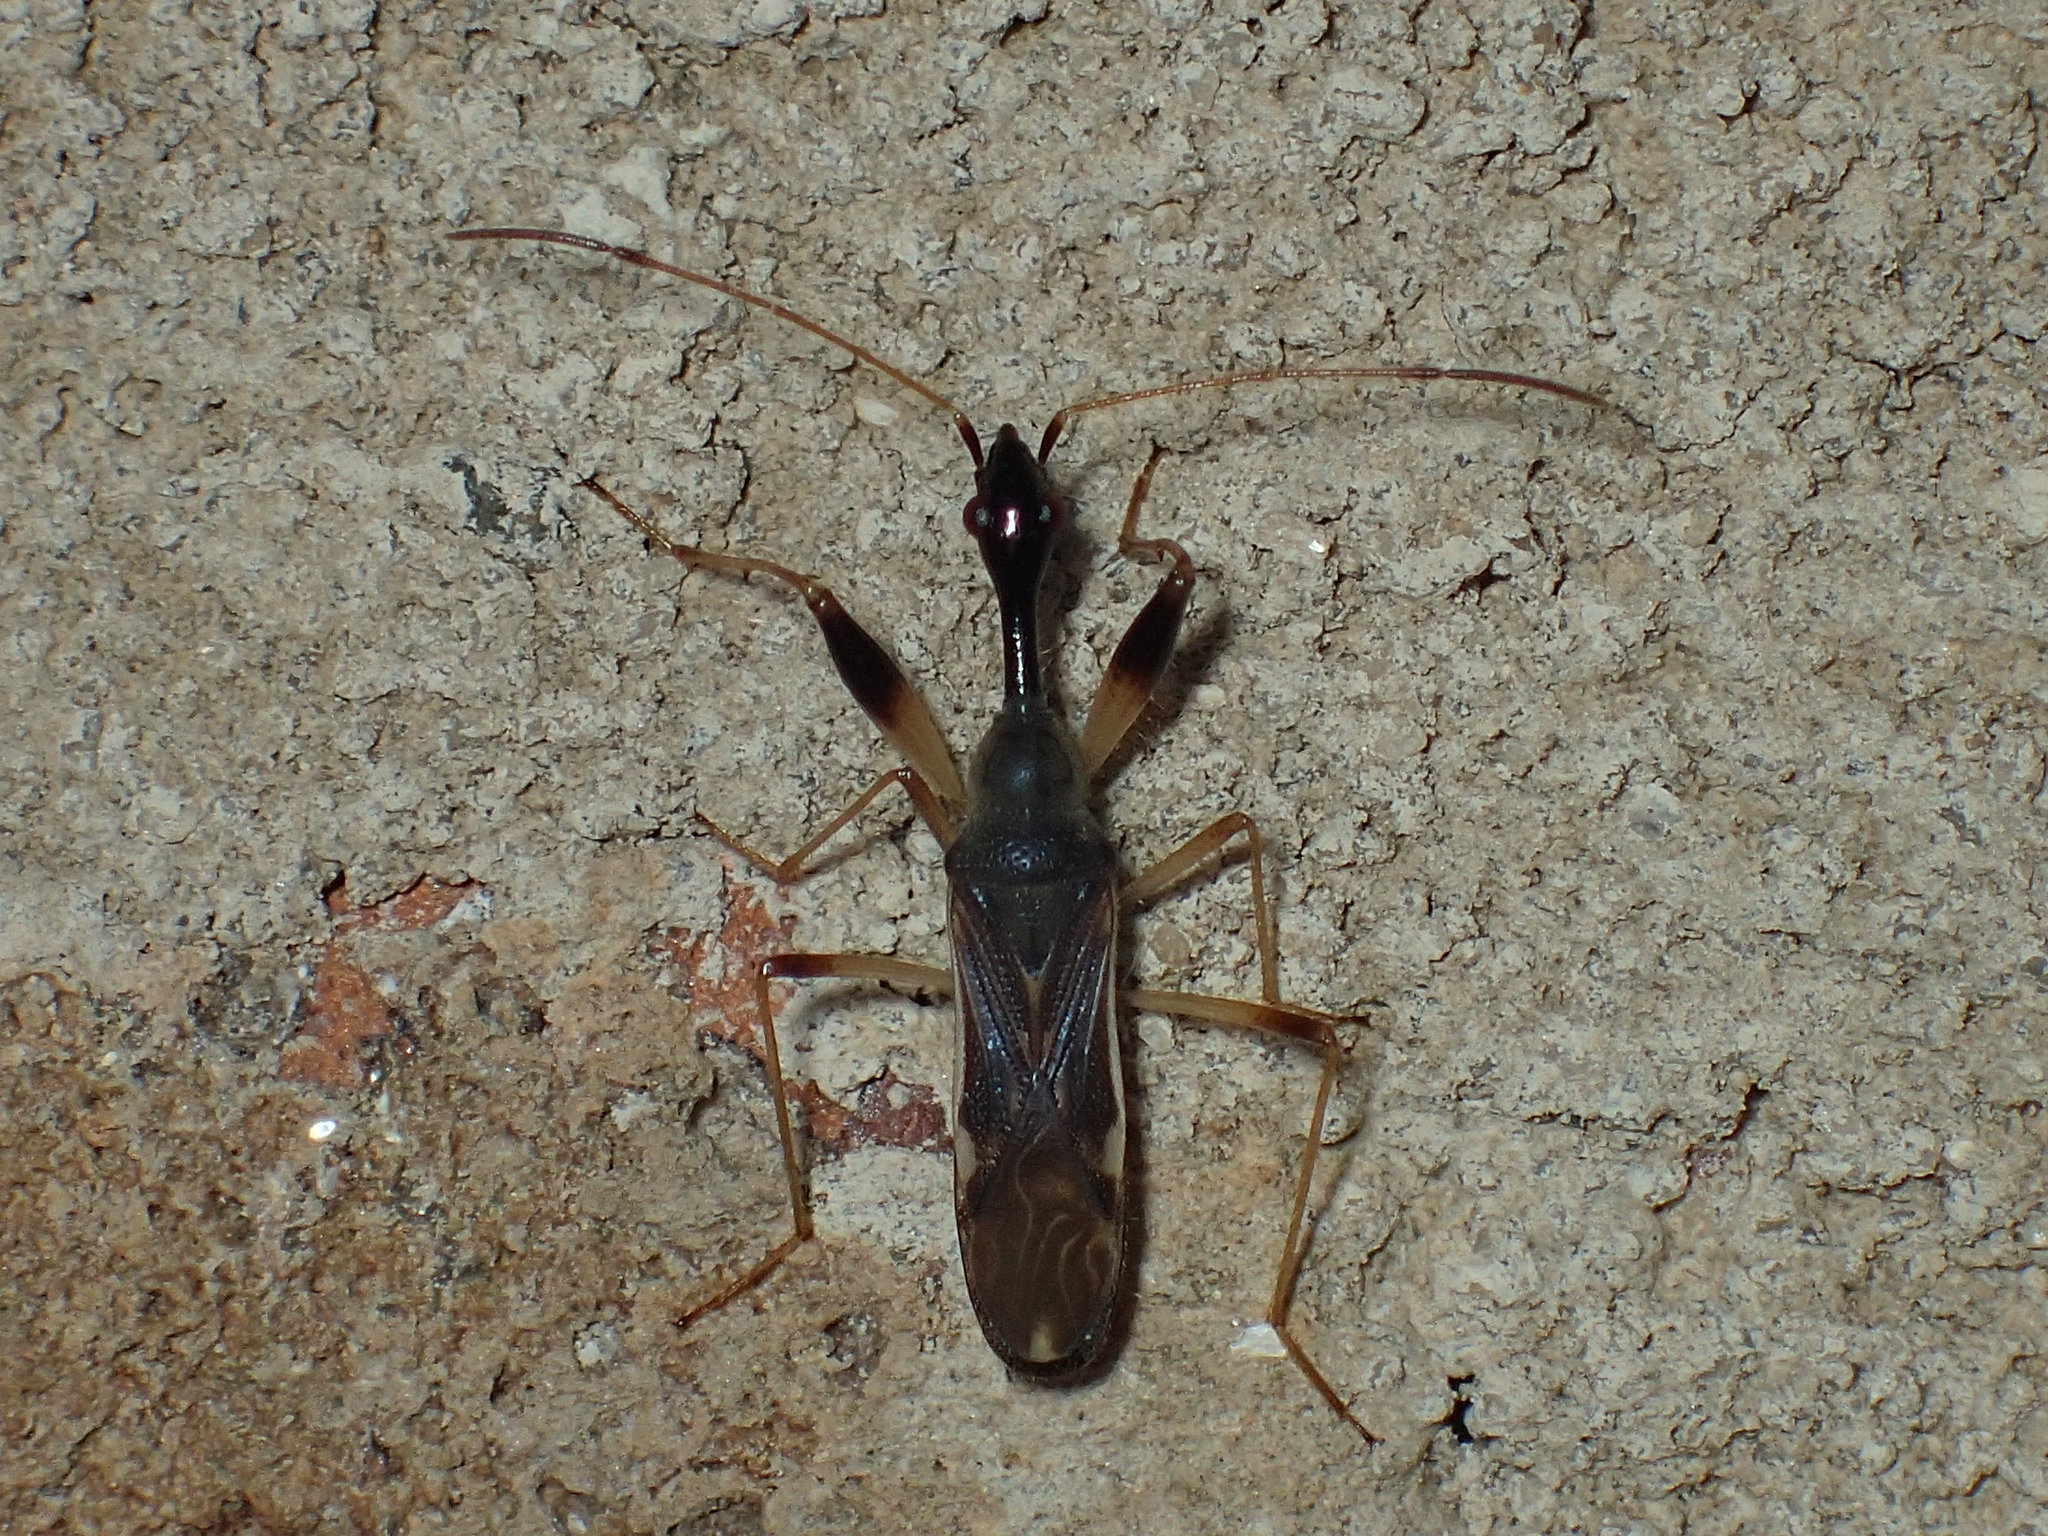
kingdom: Animalia
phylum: Arthropoda
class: Insecta
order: Hemiptera
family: Rhyparochromidae
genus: Myodocha
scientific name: Myodocha serripes
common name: Long-necked seed bug
